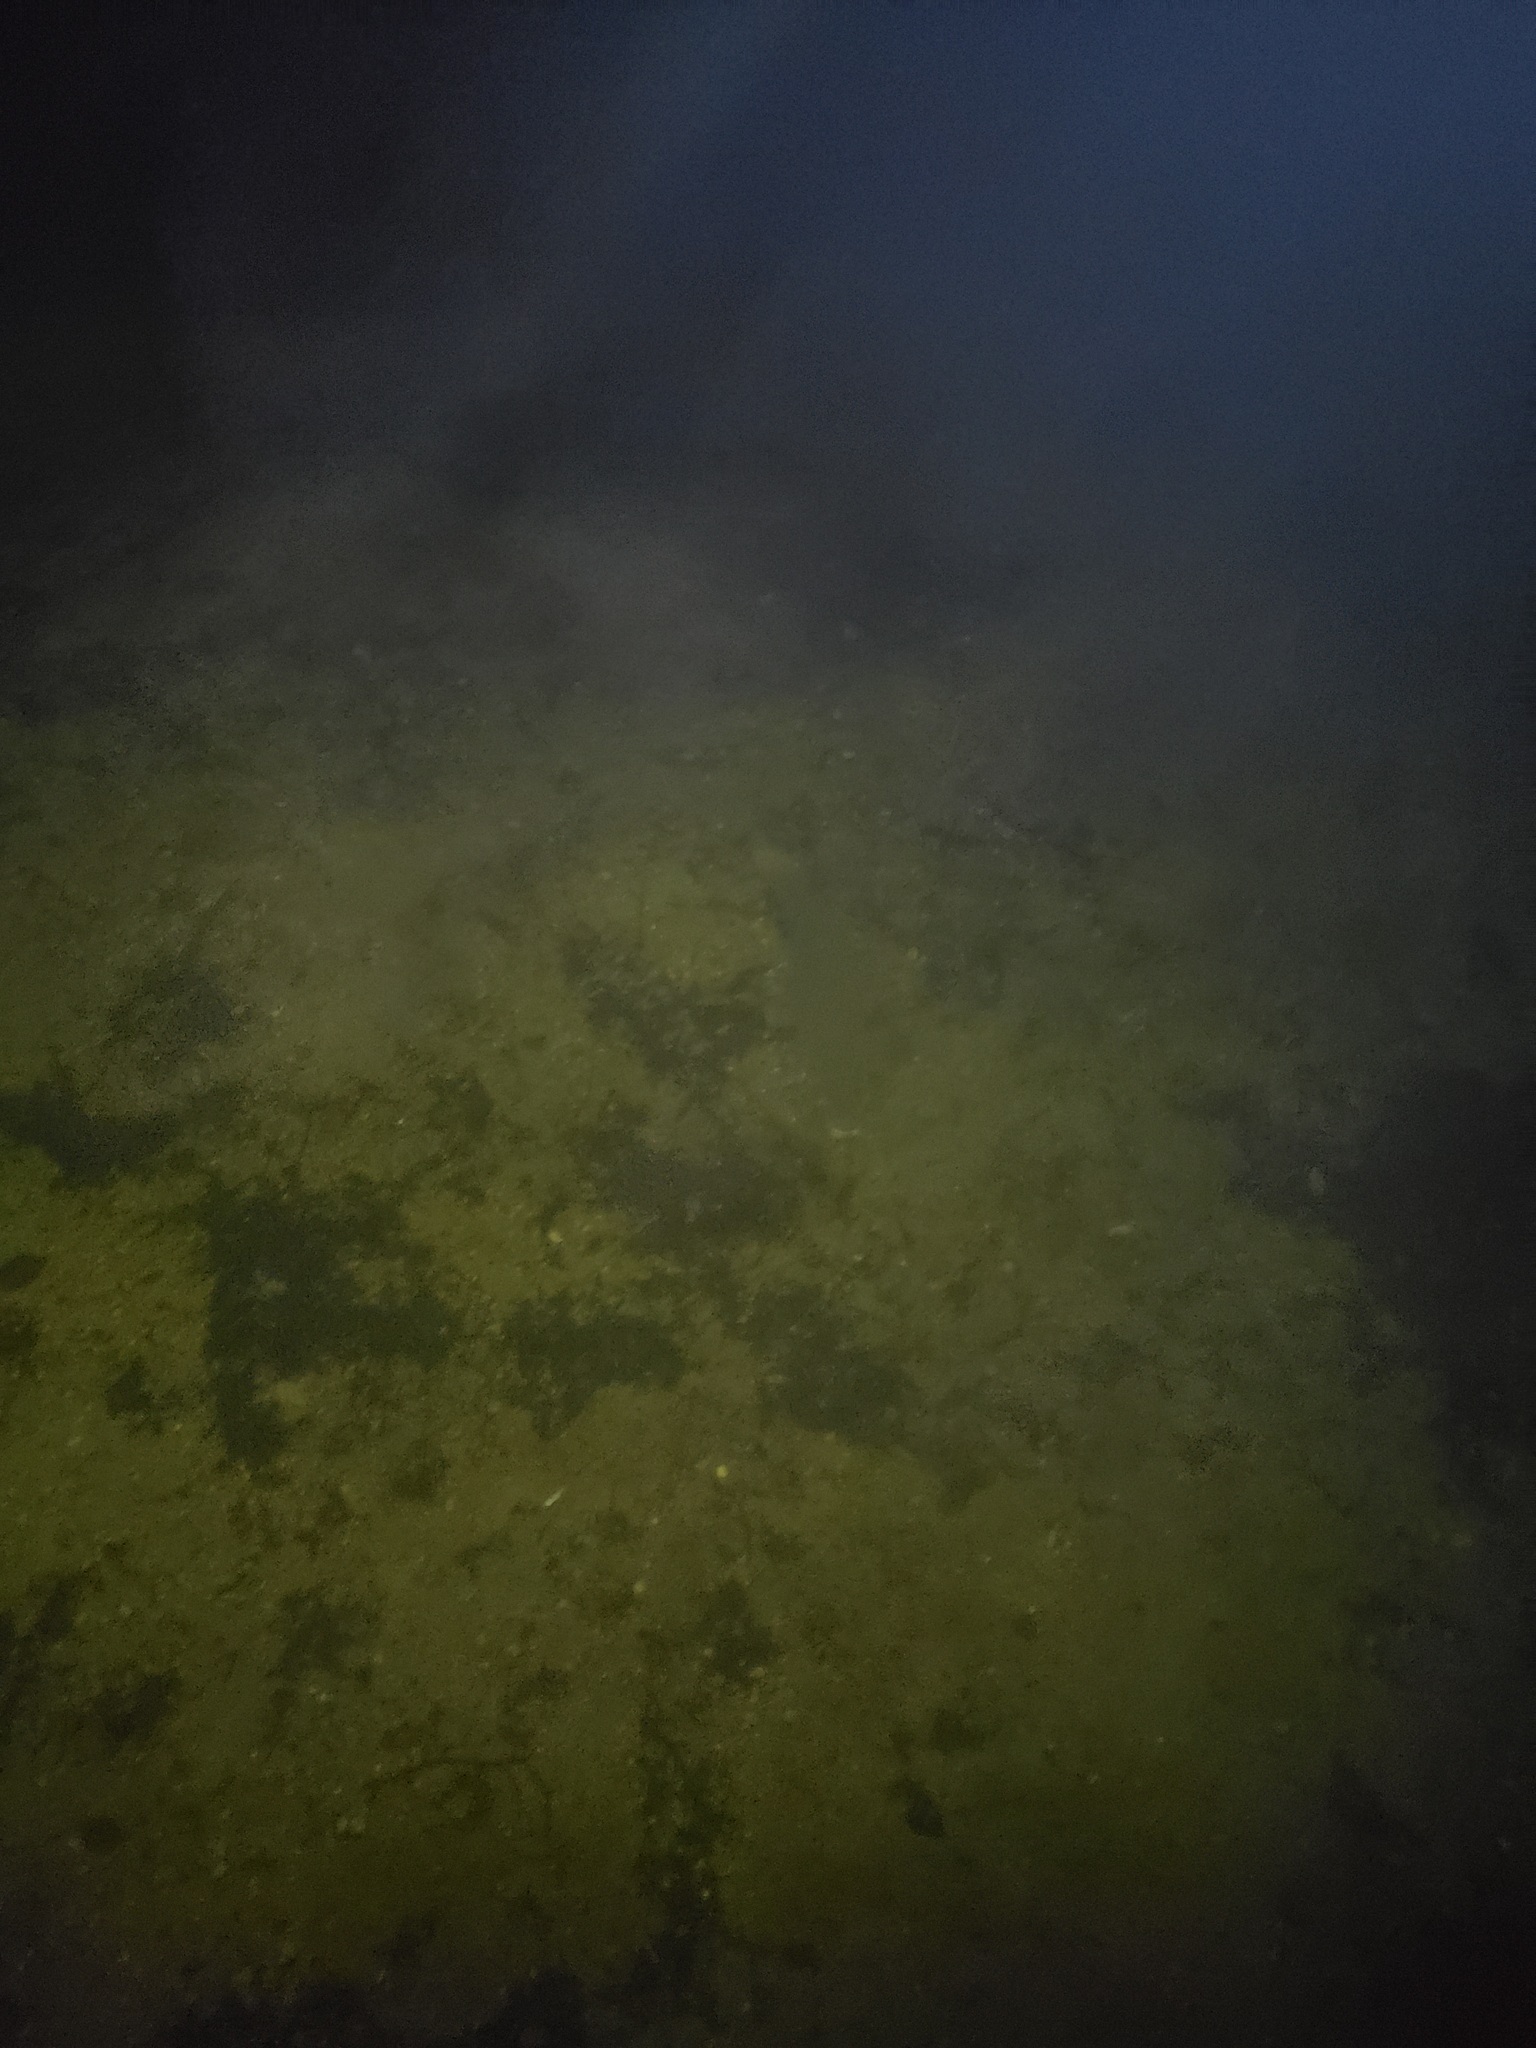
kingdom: Animalia
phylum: Chordata
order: Cypriniformes
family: Cyprinidae
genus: Cyprinus
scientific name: Cyprinus carpio
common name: Common carp
